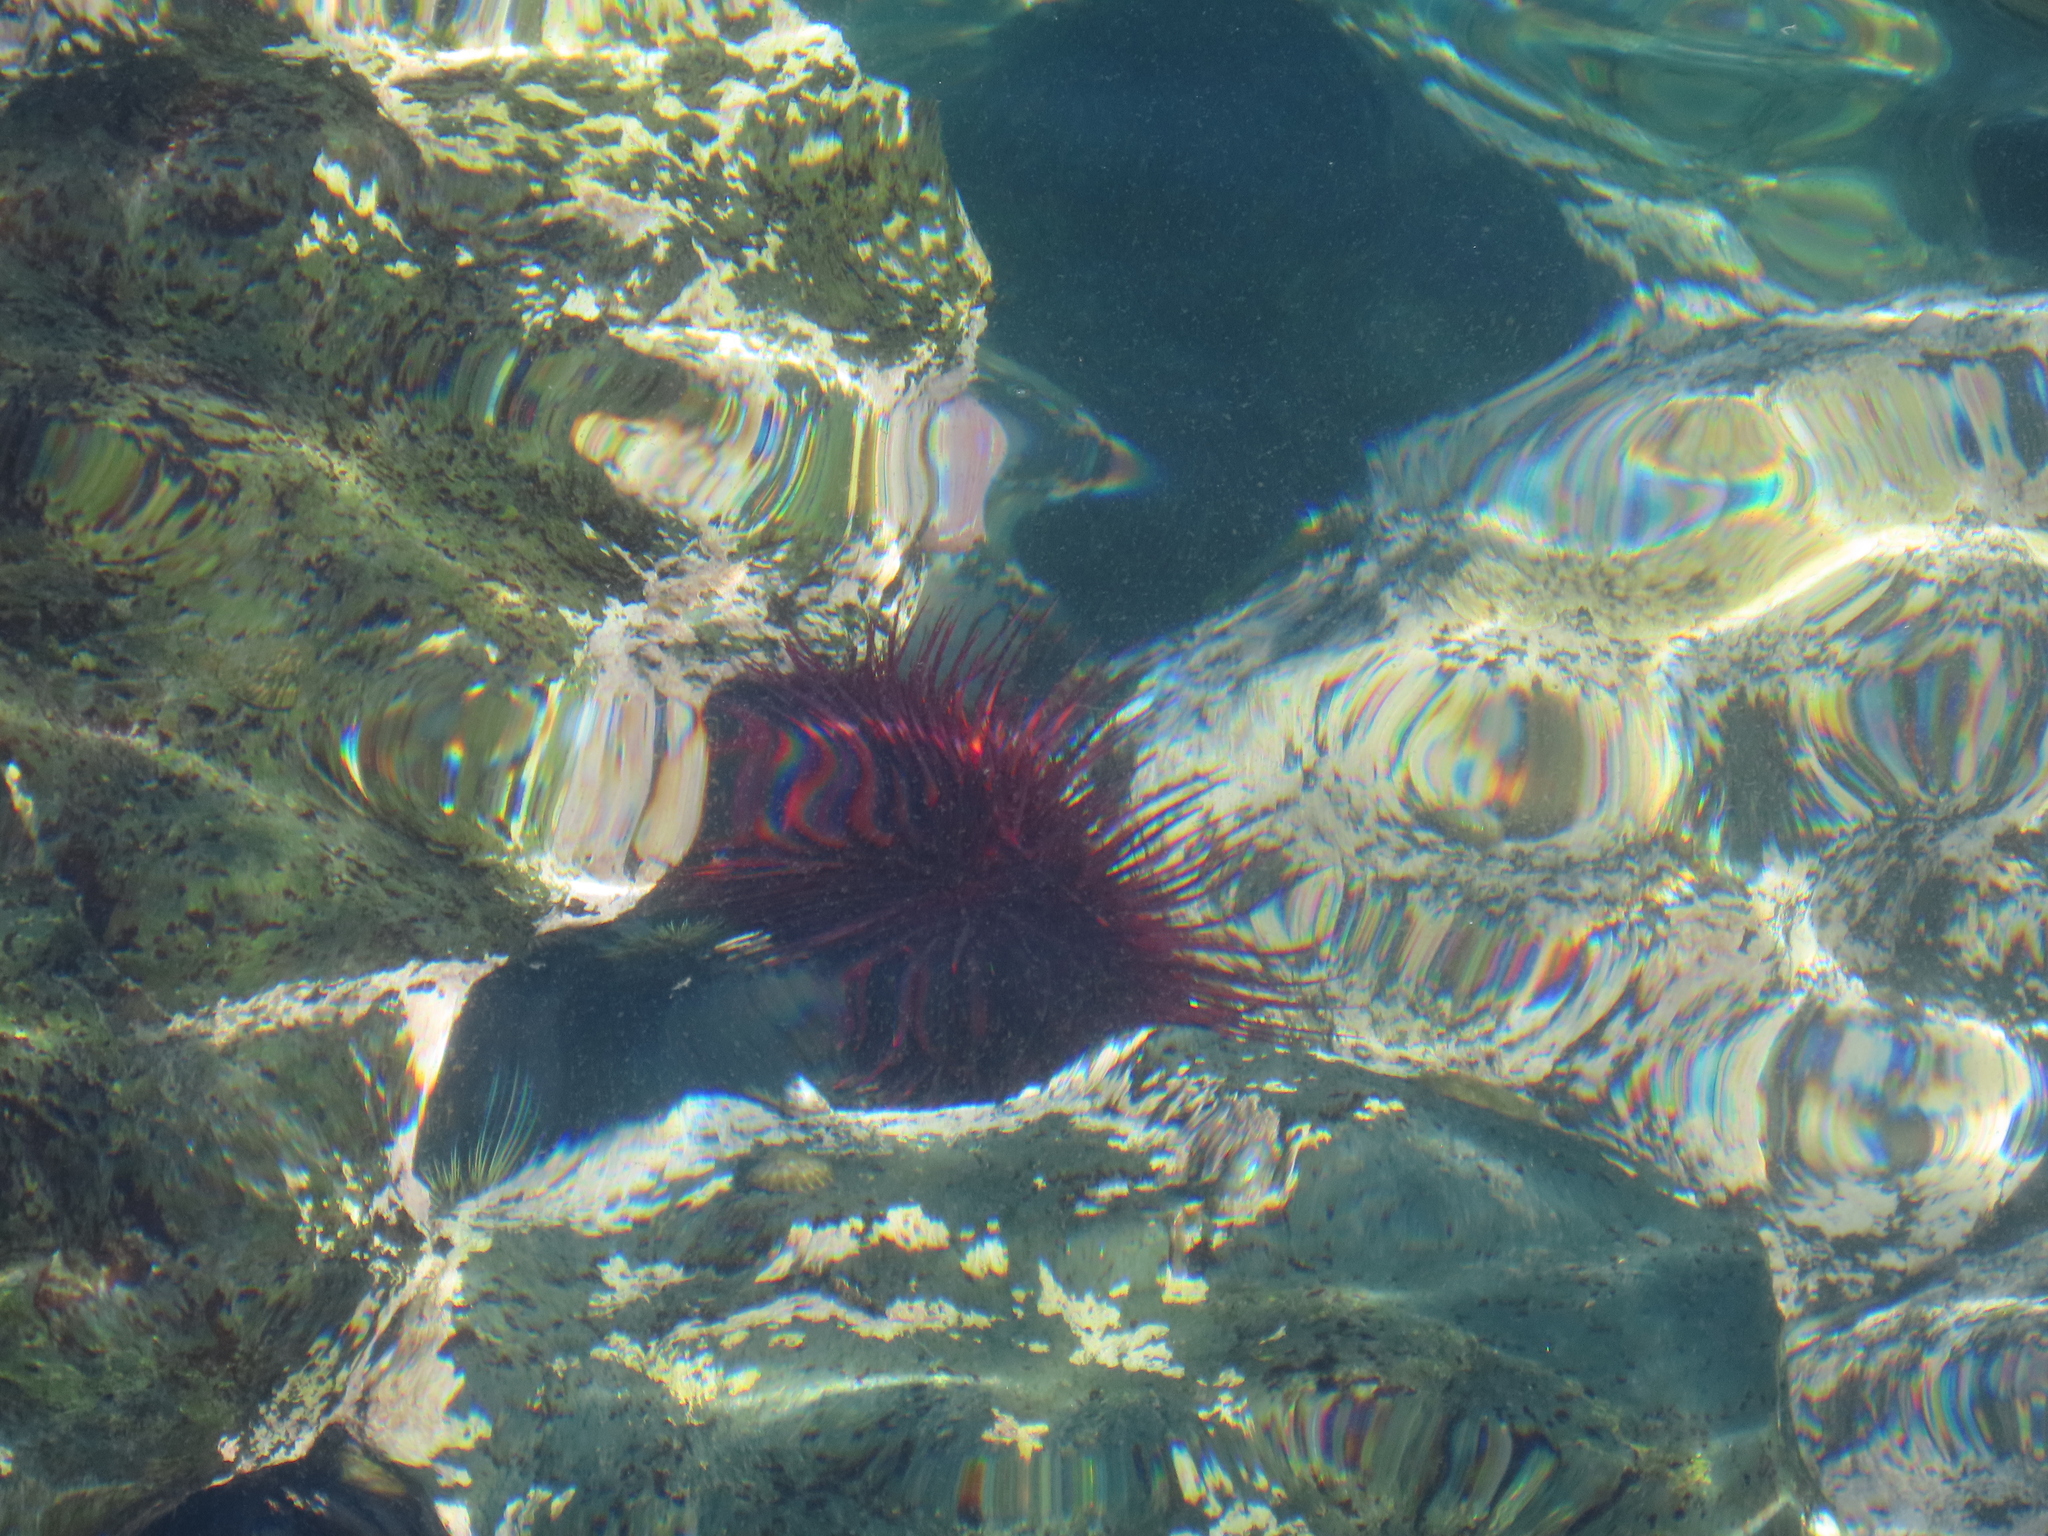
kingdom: Animalia
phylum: Echinodermata
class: Echinoidea
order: Camarodonta
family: Strongylocentrotidae
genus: Mesocentrotus
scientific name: Mesocentrotus franciscanus
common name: Red sea urchin
